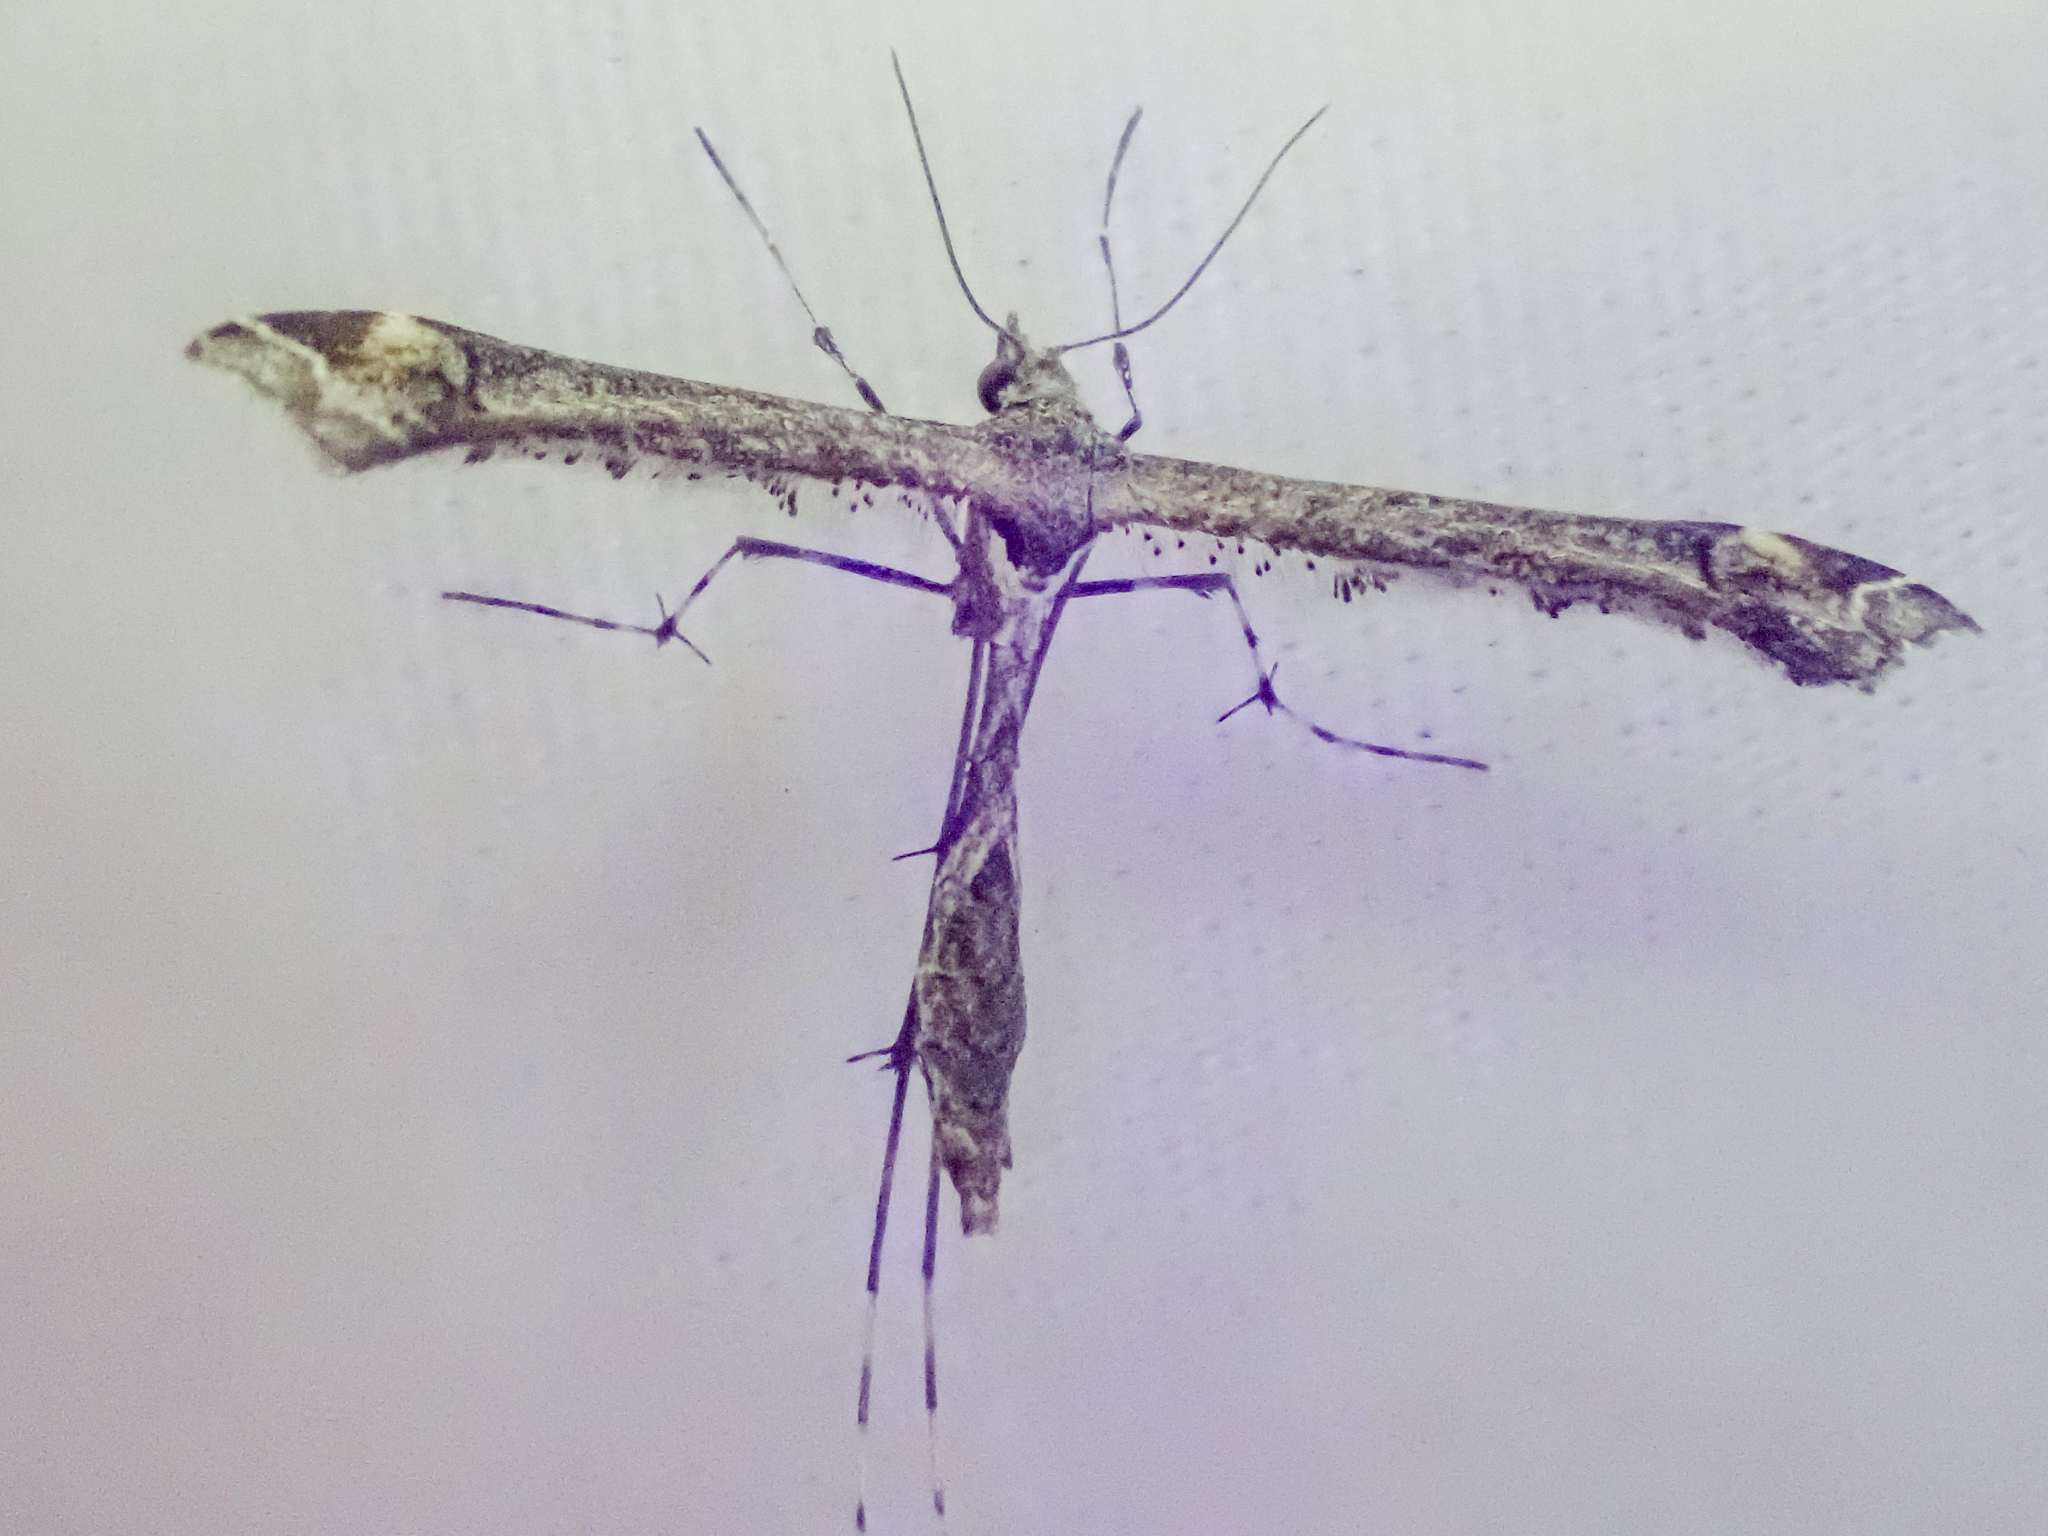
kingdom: Animalia
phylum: Arthropoda
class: Insecta
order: Lepidoptera
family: Pterophoridae
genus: Anstenoptilia
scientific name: Anstenoptilia marmarodactyla
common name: Moth
